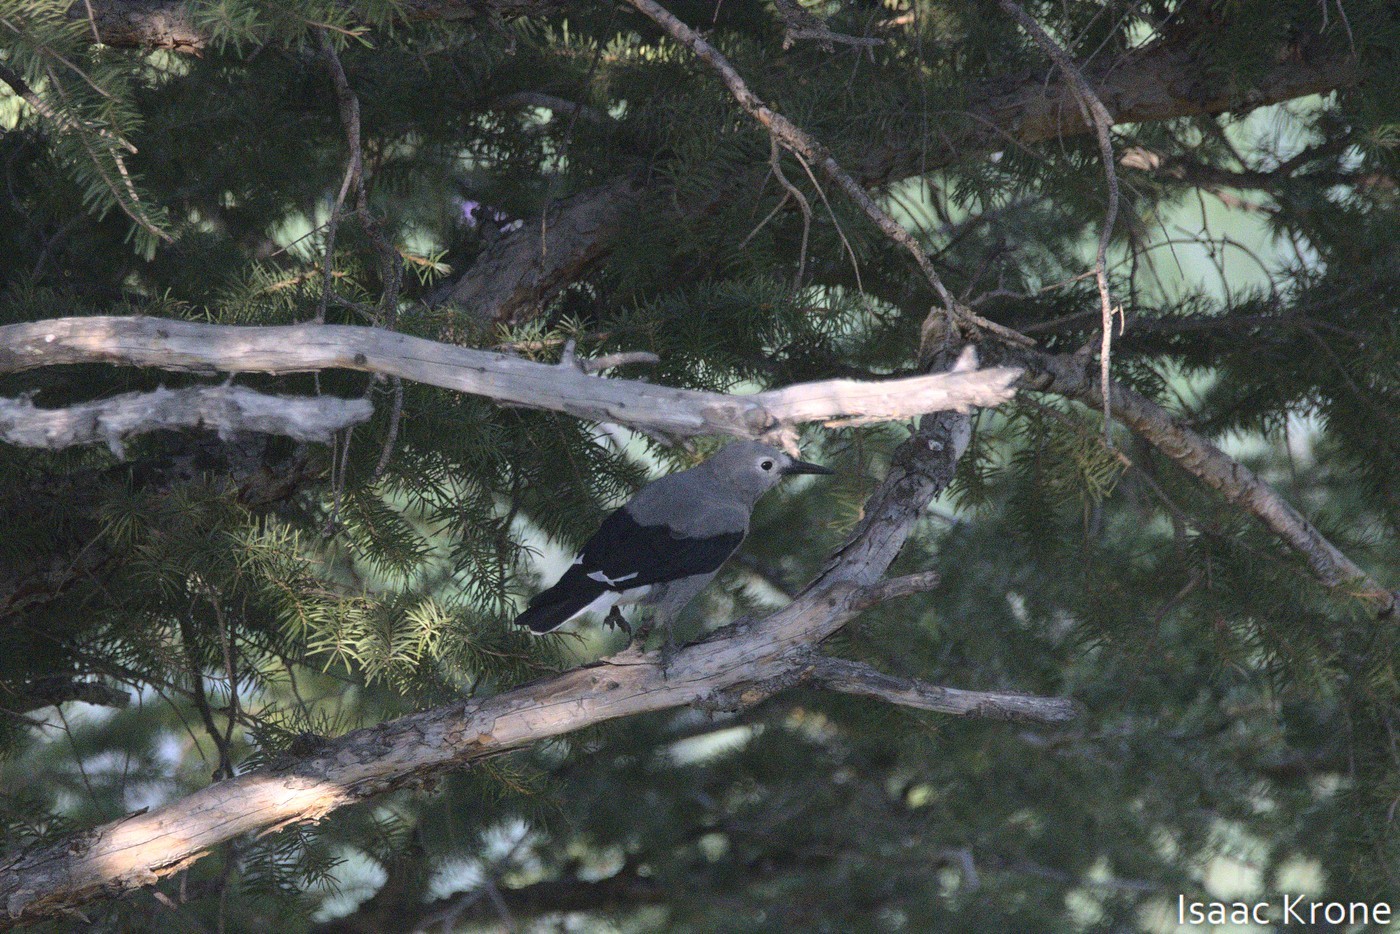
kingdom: Animalia
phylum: Chordata
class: Aves
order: Passeriformes
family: Corvidae
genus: Nucifraga
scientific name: Nucifraga columbiana
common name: Clark's nutcracker
